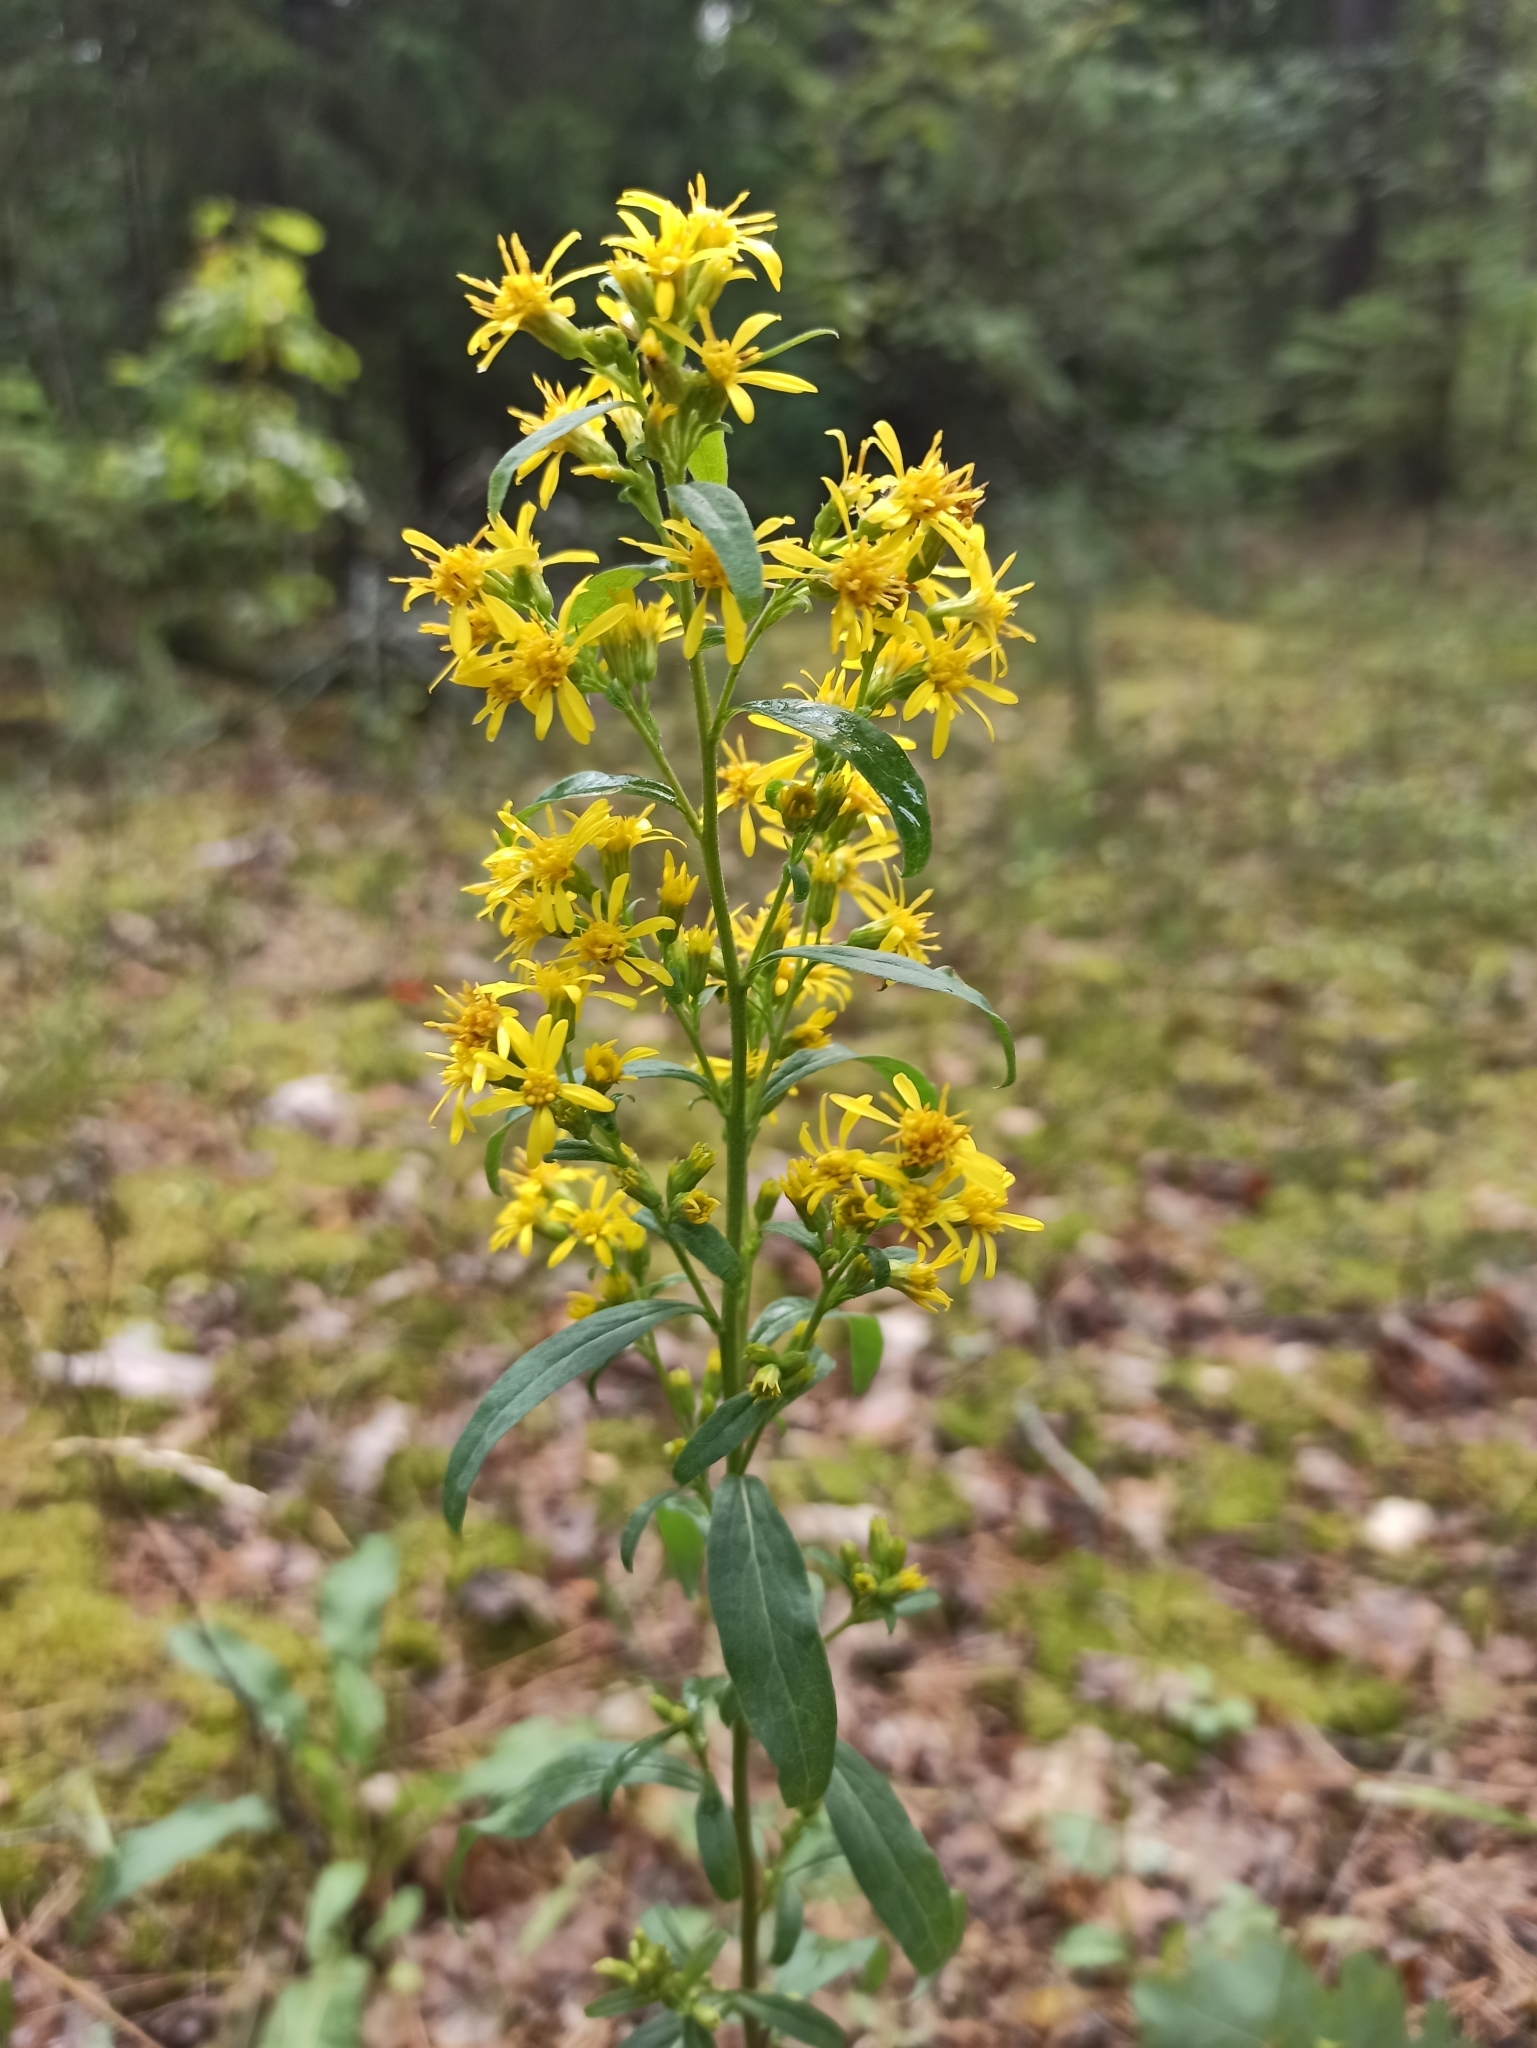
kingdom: Plantae
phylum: Tracheophyta
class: Magnoliopsida
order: Asterales
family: Asteraceae
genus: Solidago
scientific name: Solidago virgaurea
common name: Goldenrod
